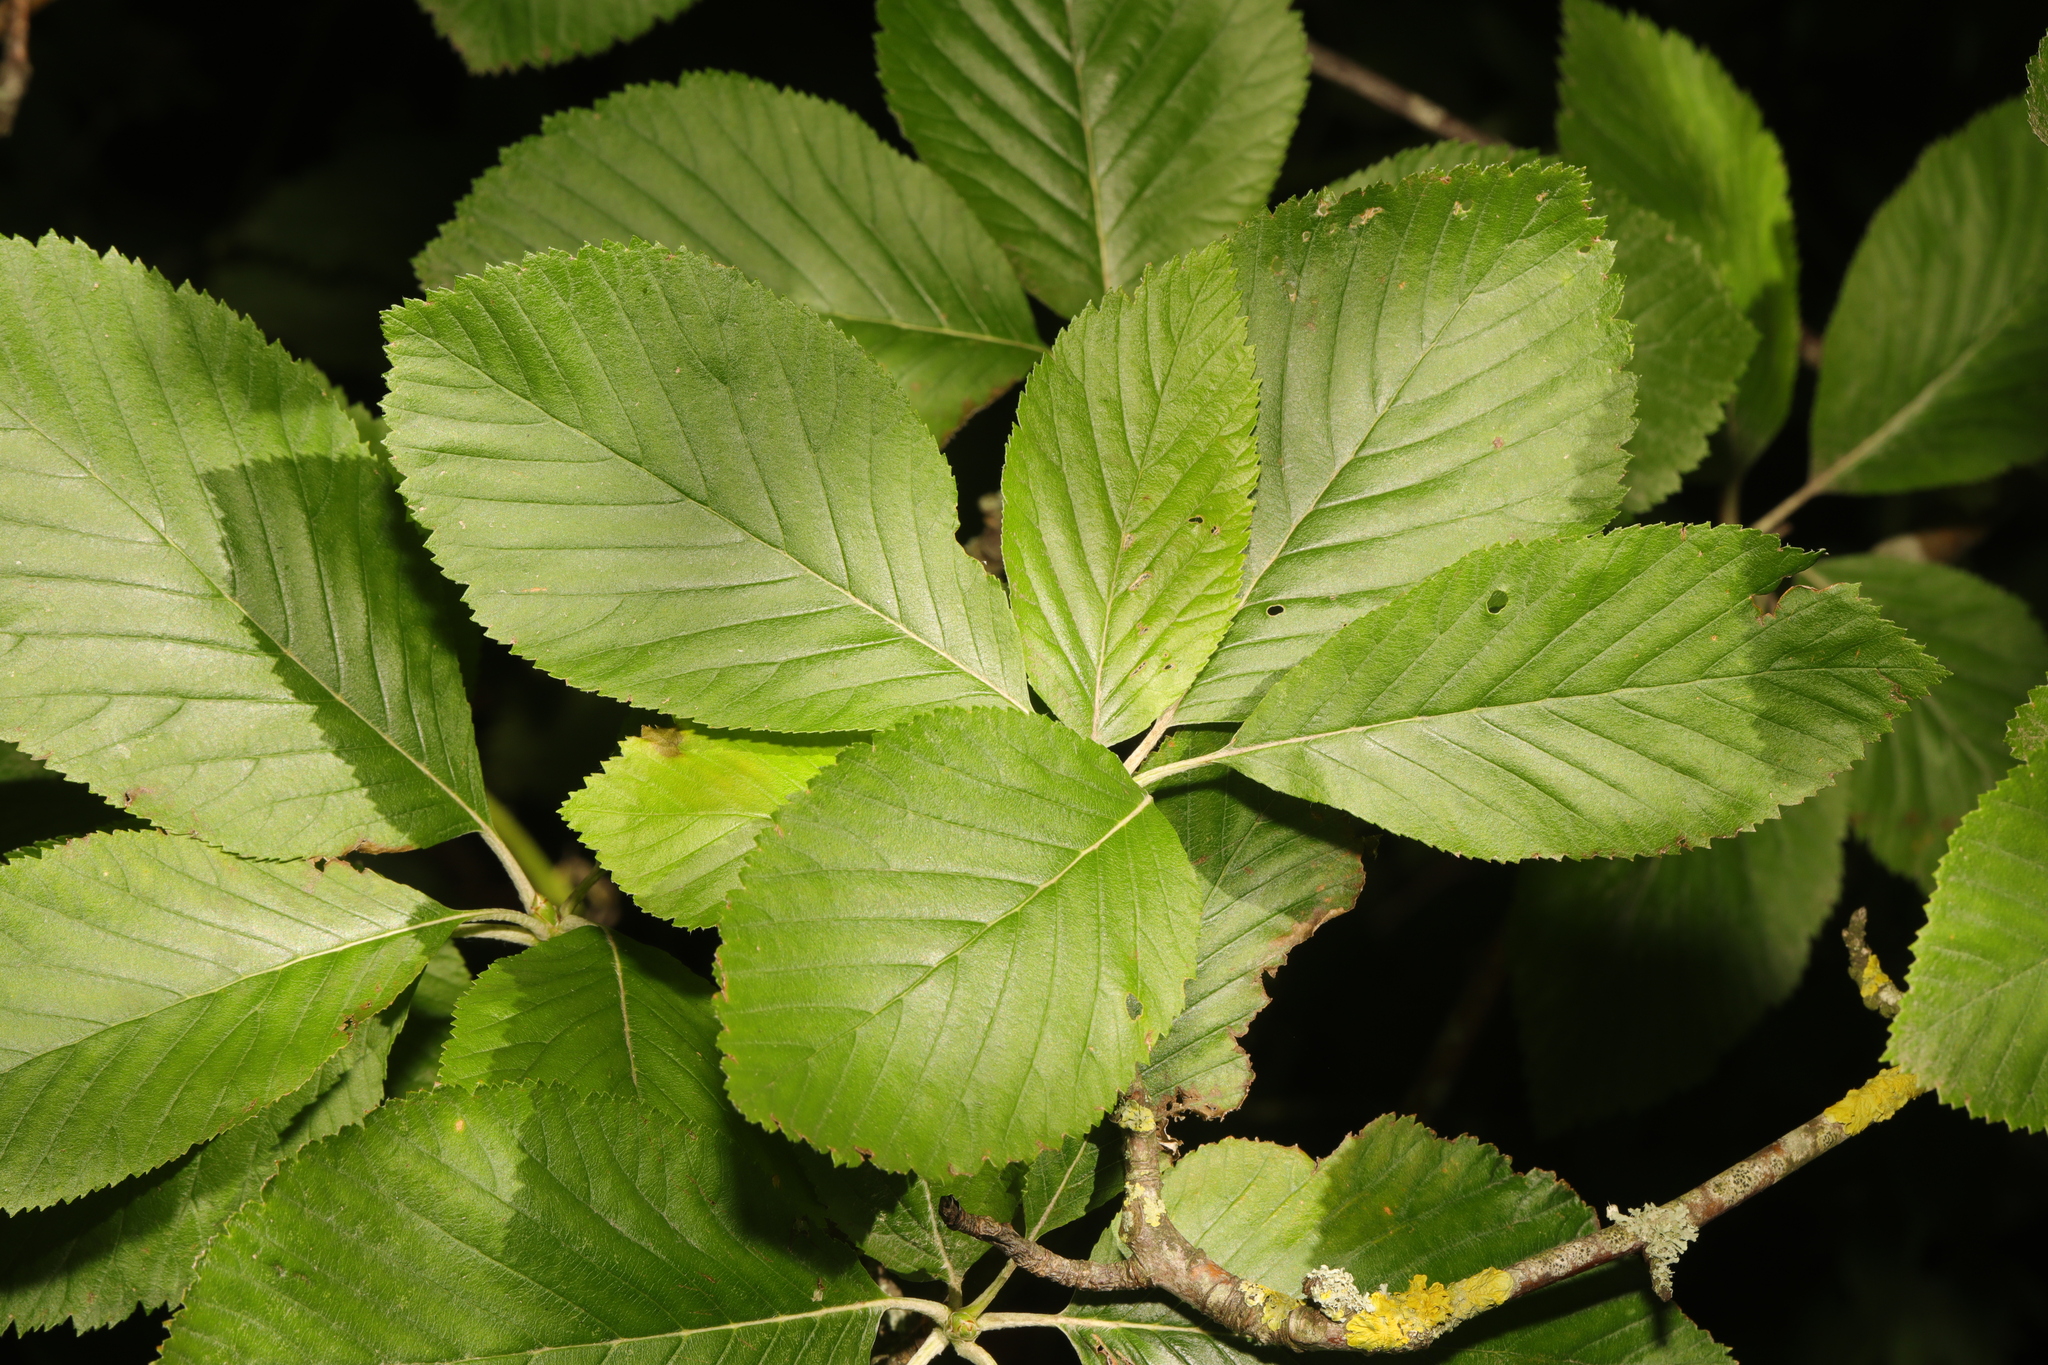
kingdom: Plantae
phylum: Tracheophyta
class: Magnoliopsida
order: Rosales
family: Rosaceae
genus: Aria
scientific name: Aria edulis
